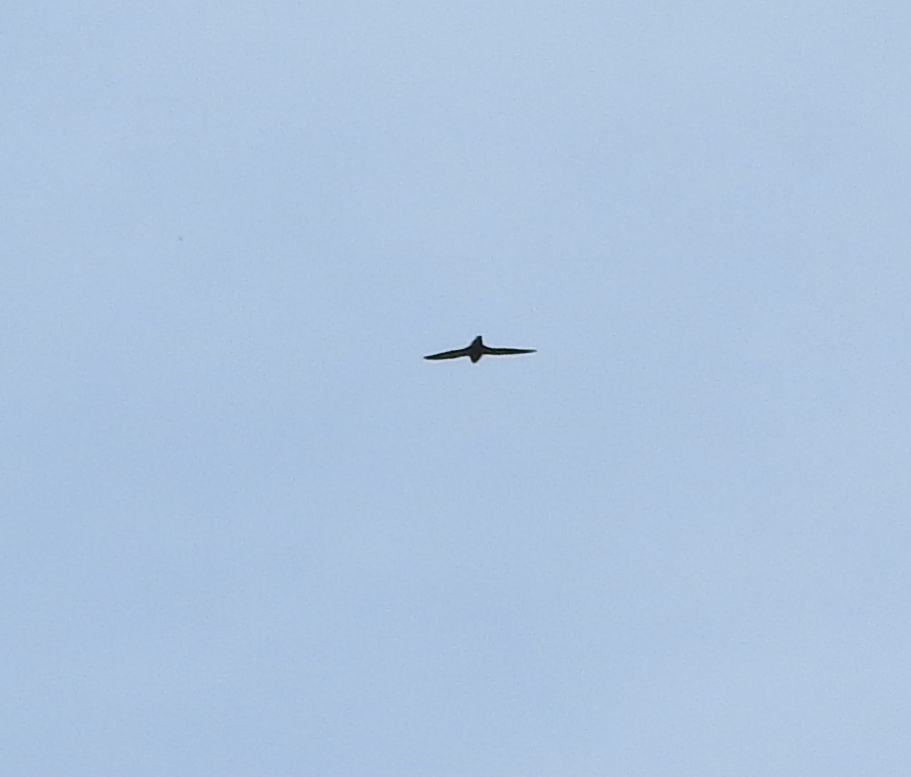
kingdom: Animalia
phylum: Chordata
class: Aves
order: Apodiformes
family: Apodidae
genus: Chaetura
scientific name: Chaetura pelagica
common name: Chimney swift
